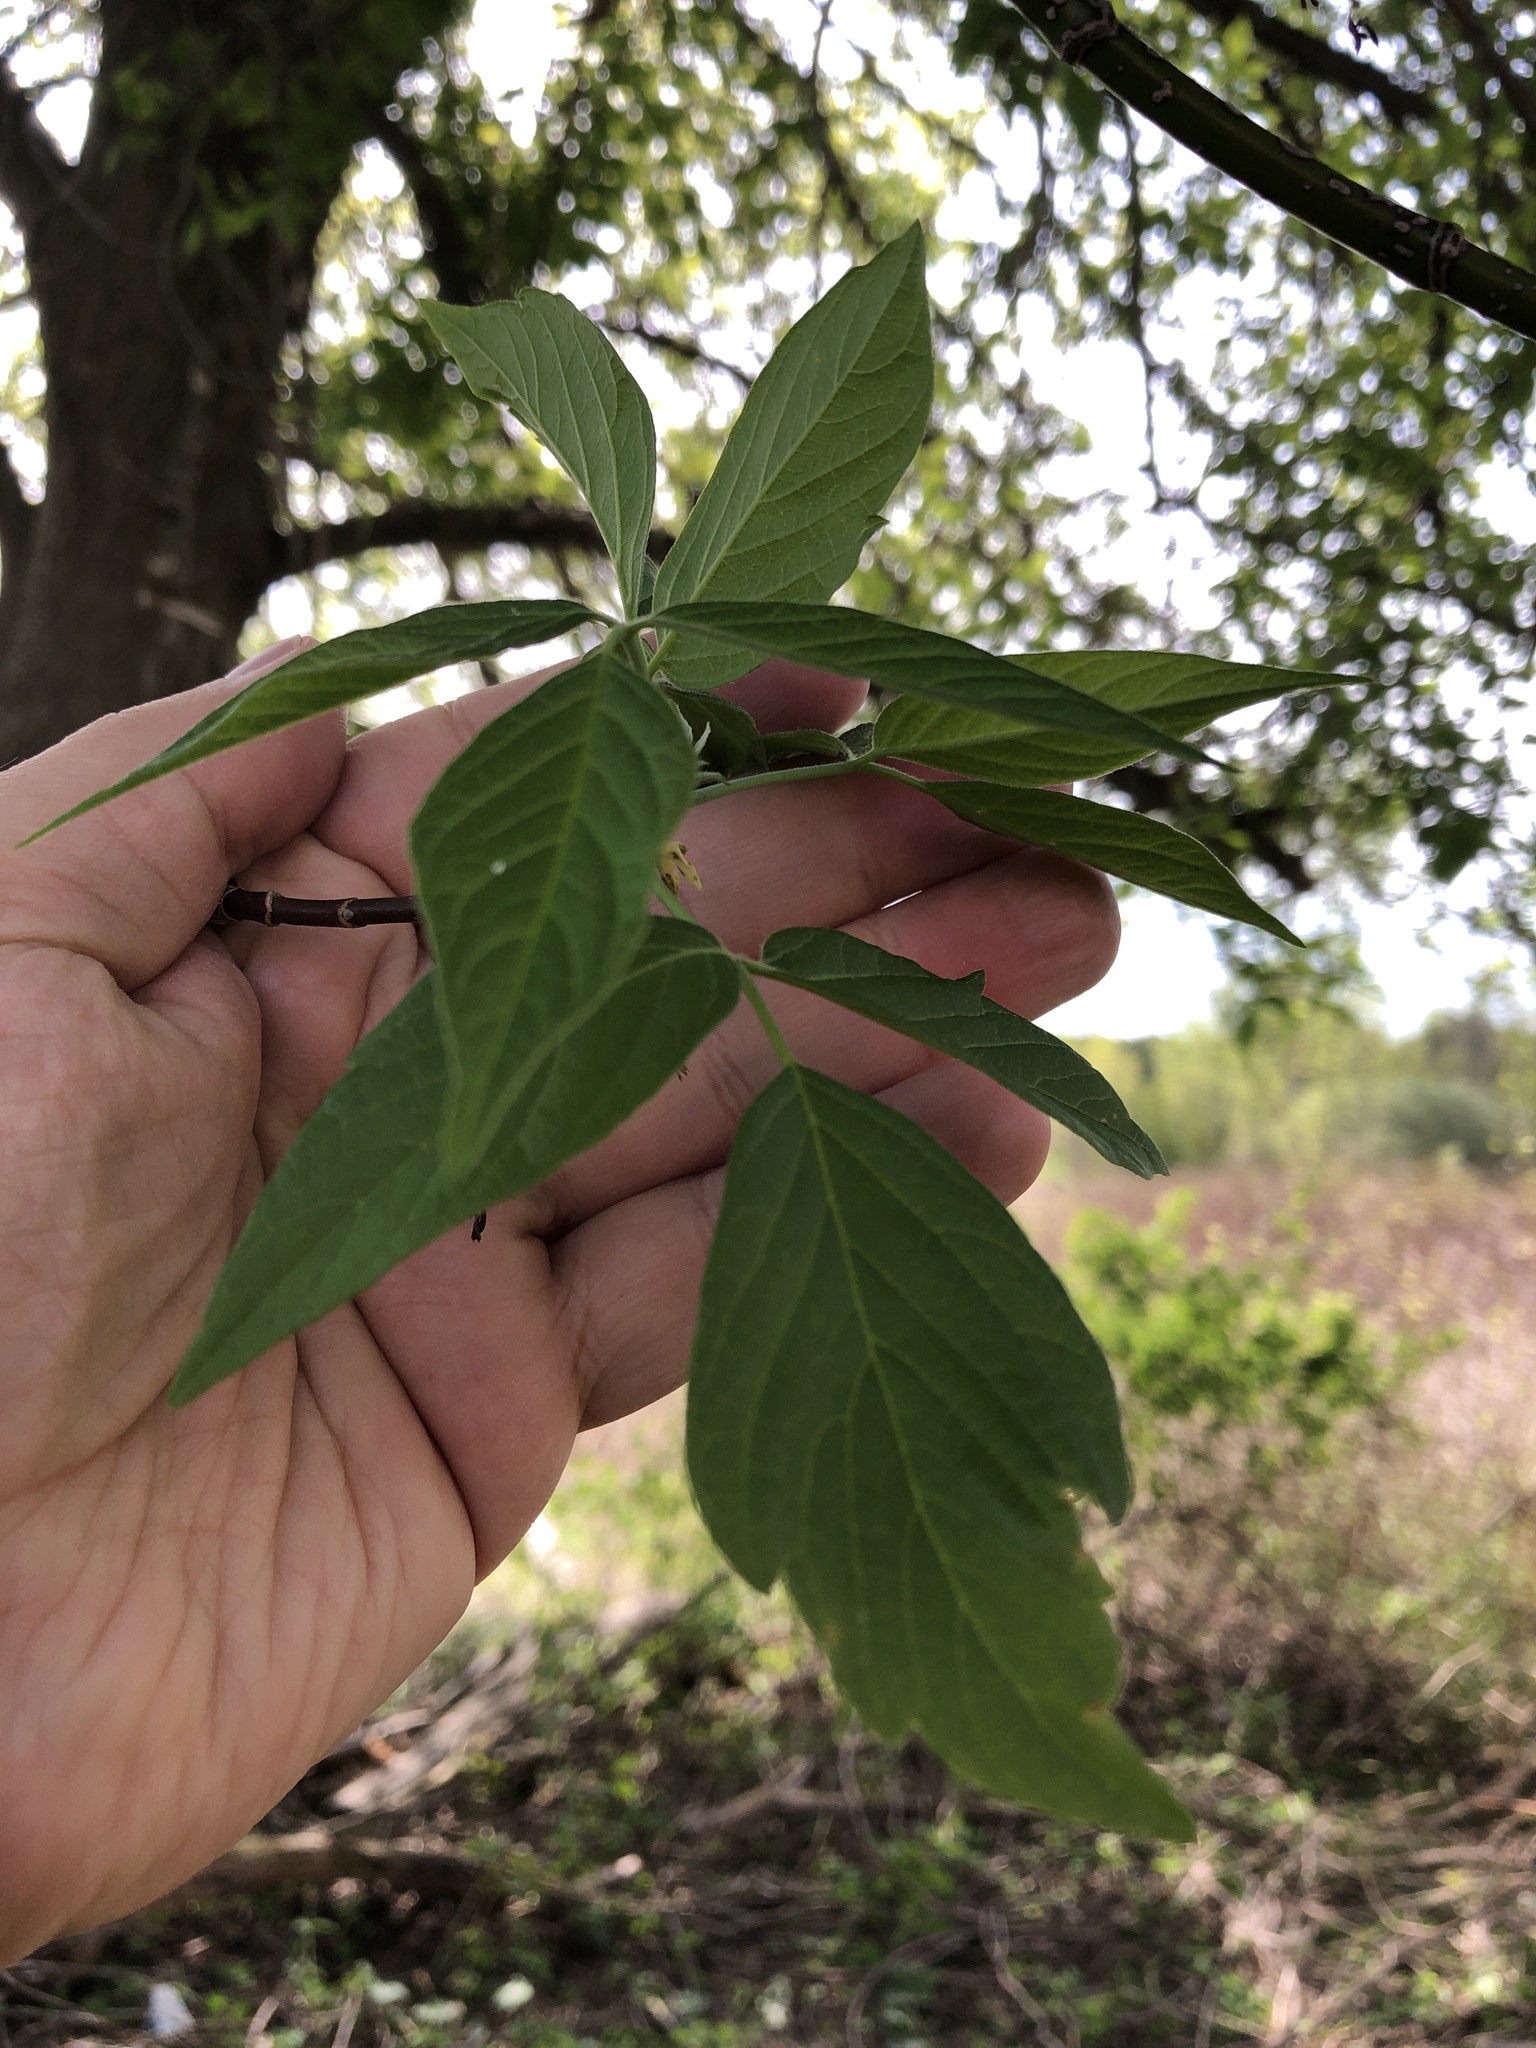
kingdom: Plantae
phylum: Tracheophyta
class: Magnoliopsida
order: Sapindales
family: Sapindaceae
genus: Acer
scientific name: Acer negundo
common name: Ashleaf maple
